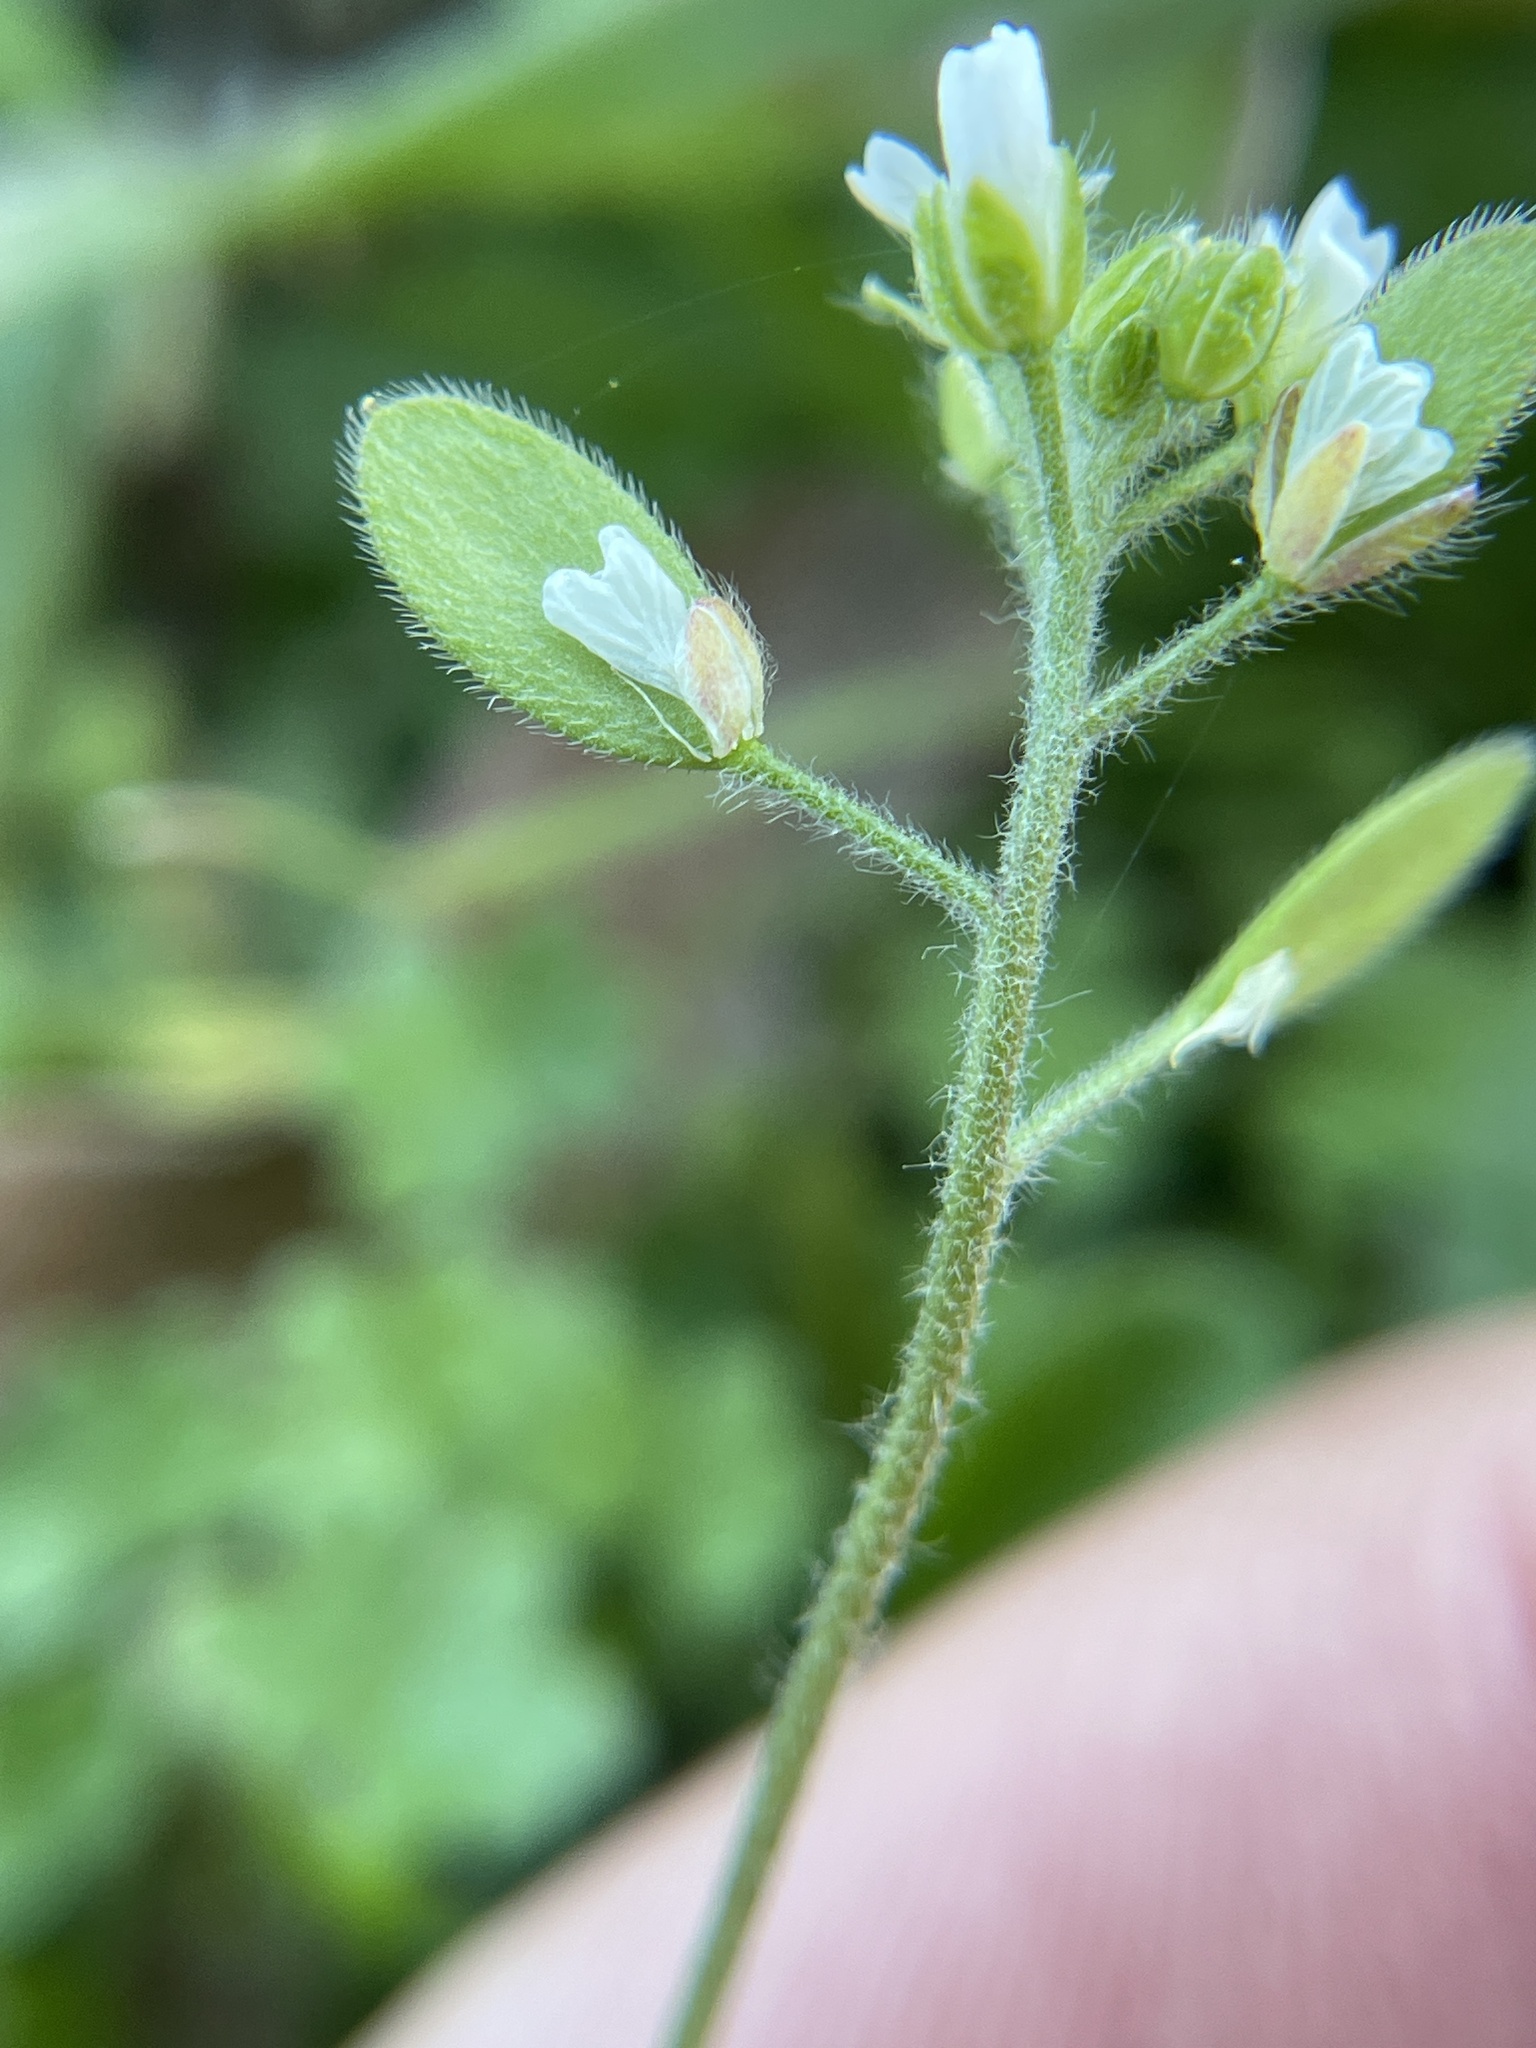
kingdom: Plantae
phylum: Tracheophyta
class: Magnoliopsida
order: Brassicales
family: Brassicaceae
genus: Tomostima
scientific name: Tomostima platycarpa
